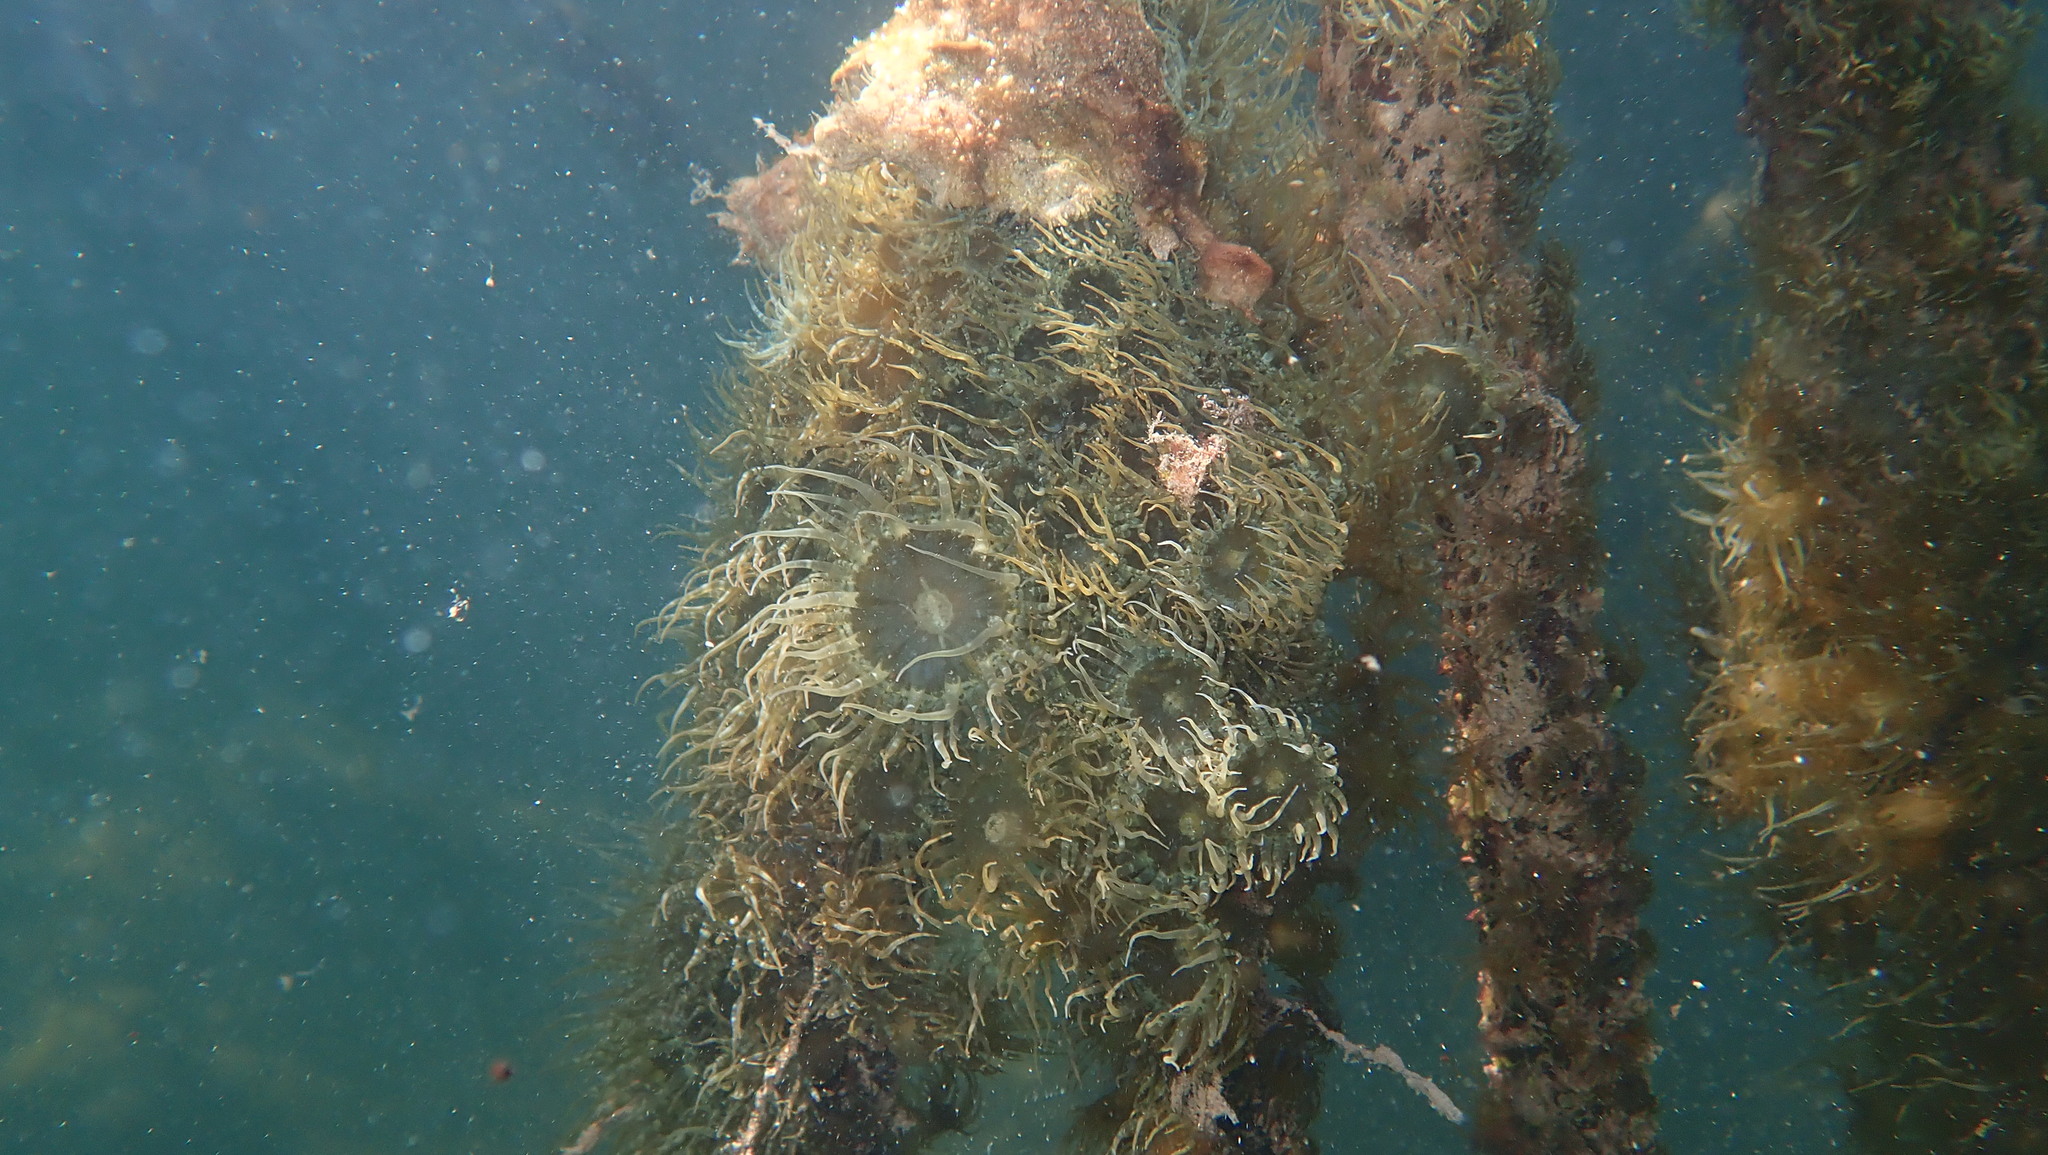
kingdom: Animalia
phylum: Cnidaria
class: Anthozoa
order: Actiniaria
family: Aiptasiidae
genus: Exaiptasia
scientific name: Exaiptasia diaphana
